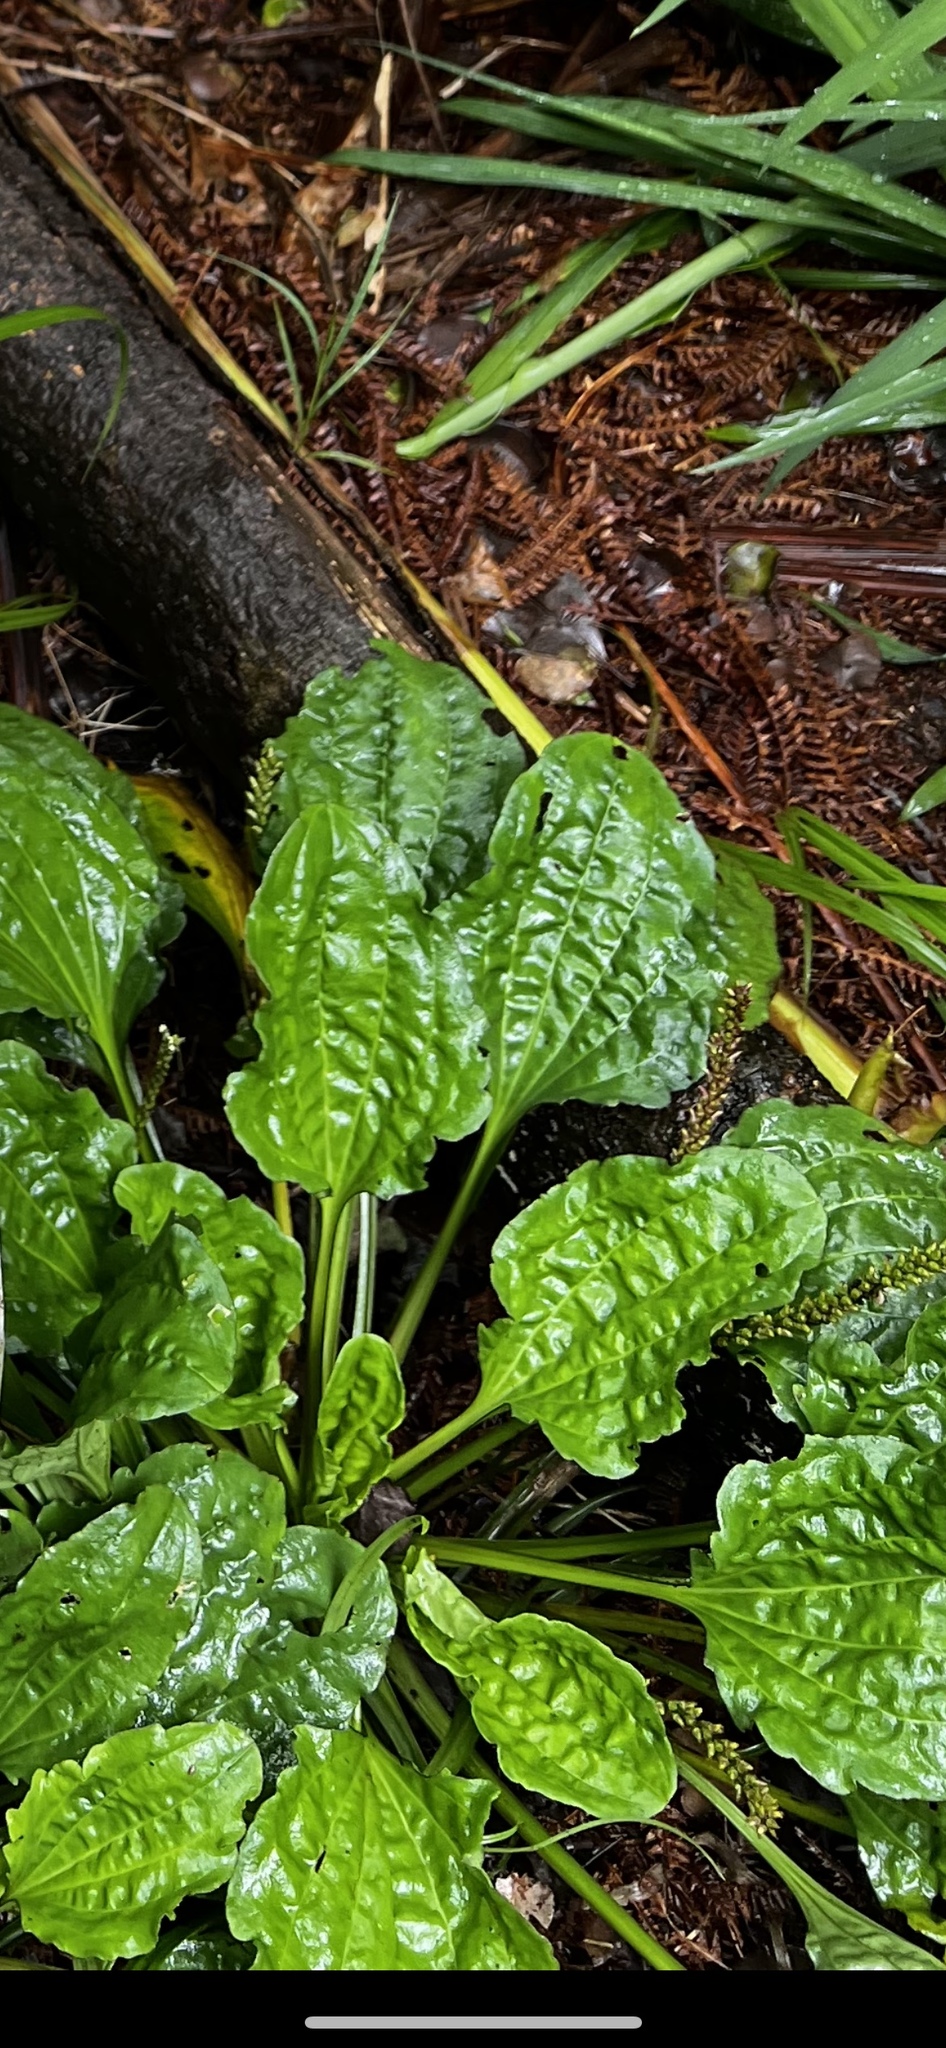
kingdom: Plantae
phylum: Tracheophyta
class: Magnoliopsida
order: Lamiales
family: Plantaginaceae
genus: Plantago
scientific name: Plantago major
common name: Common plantain
